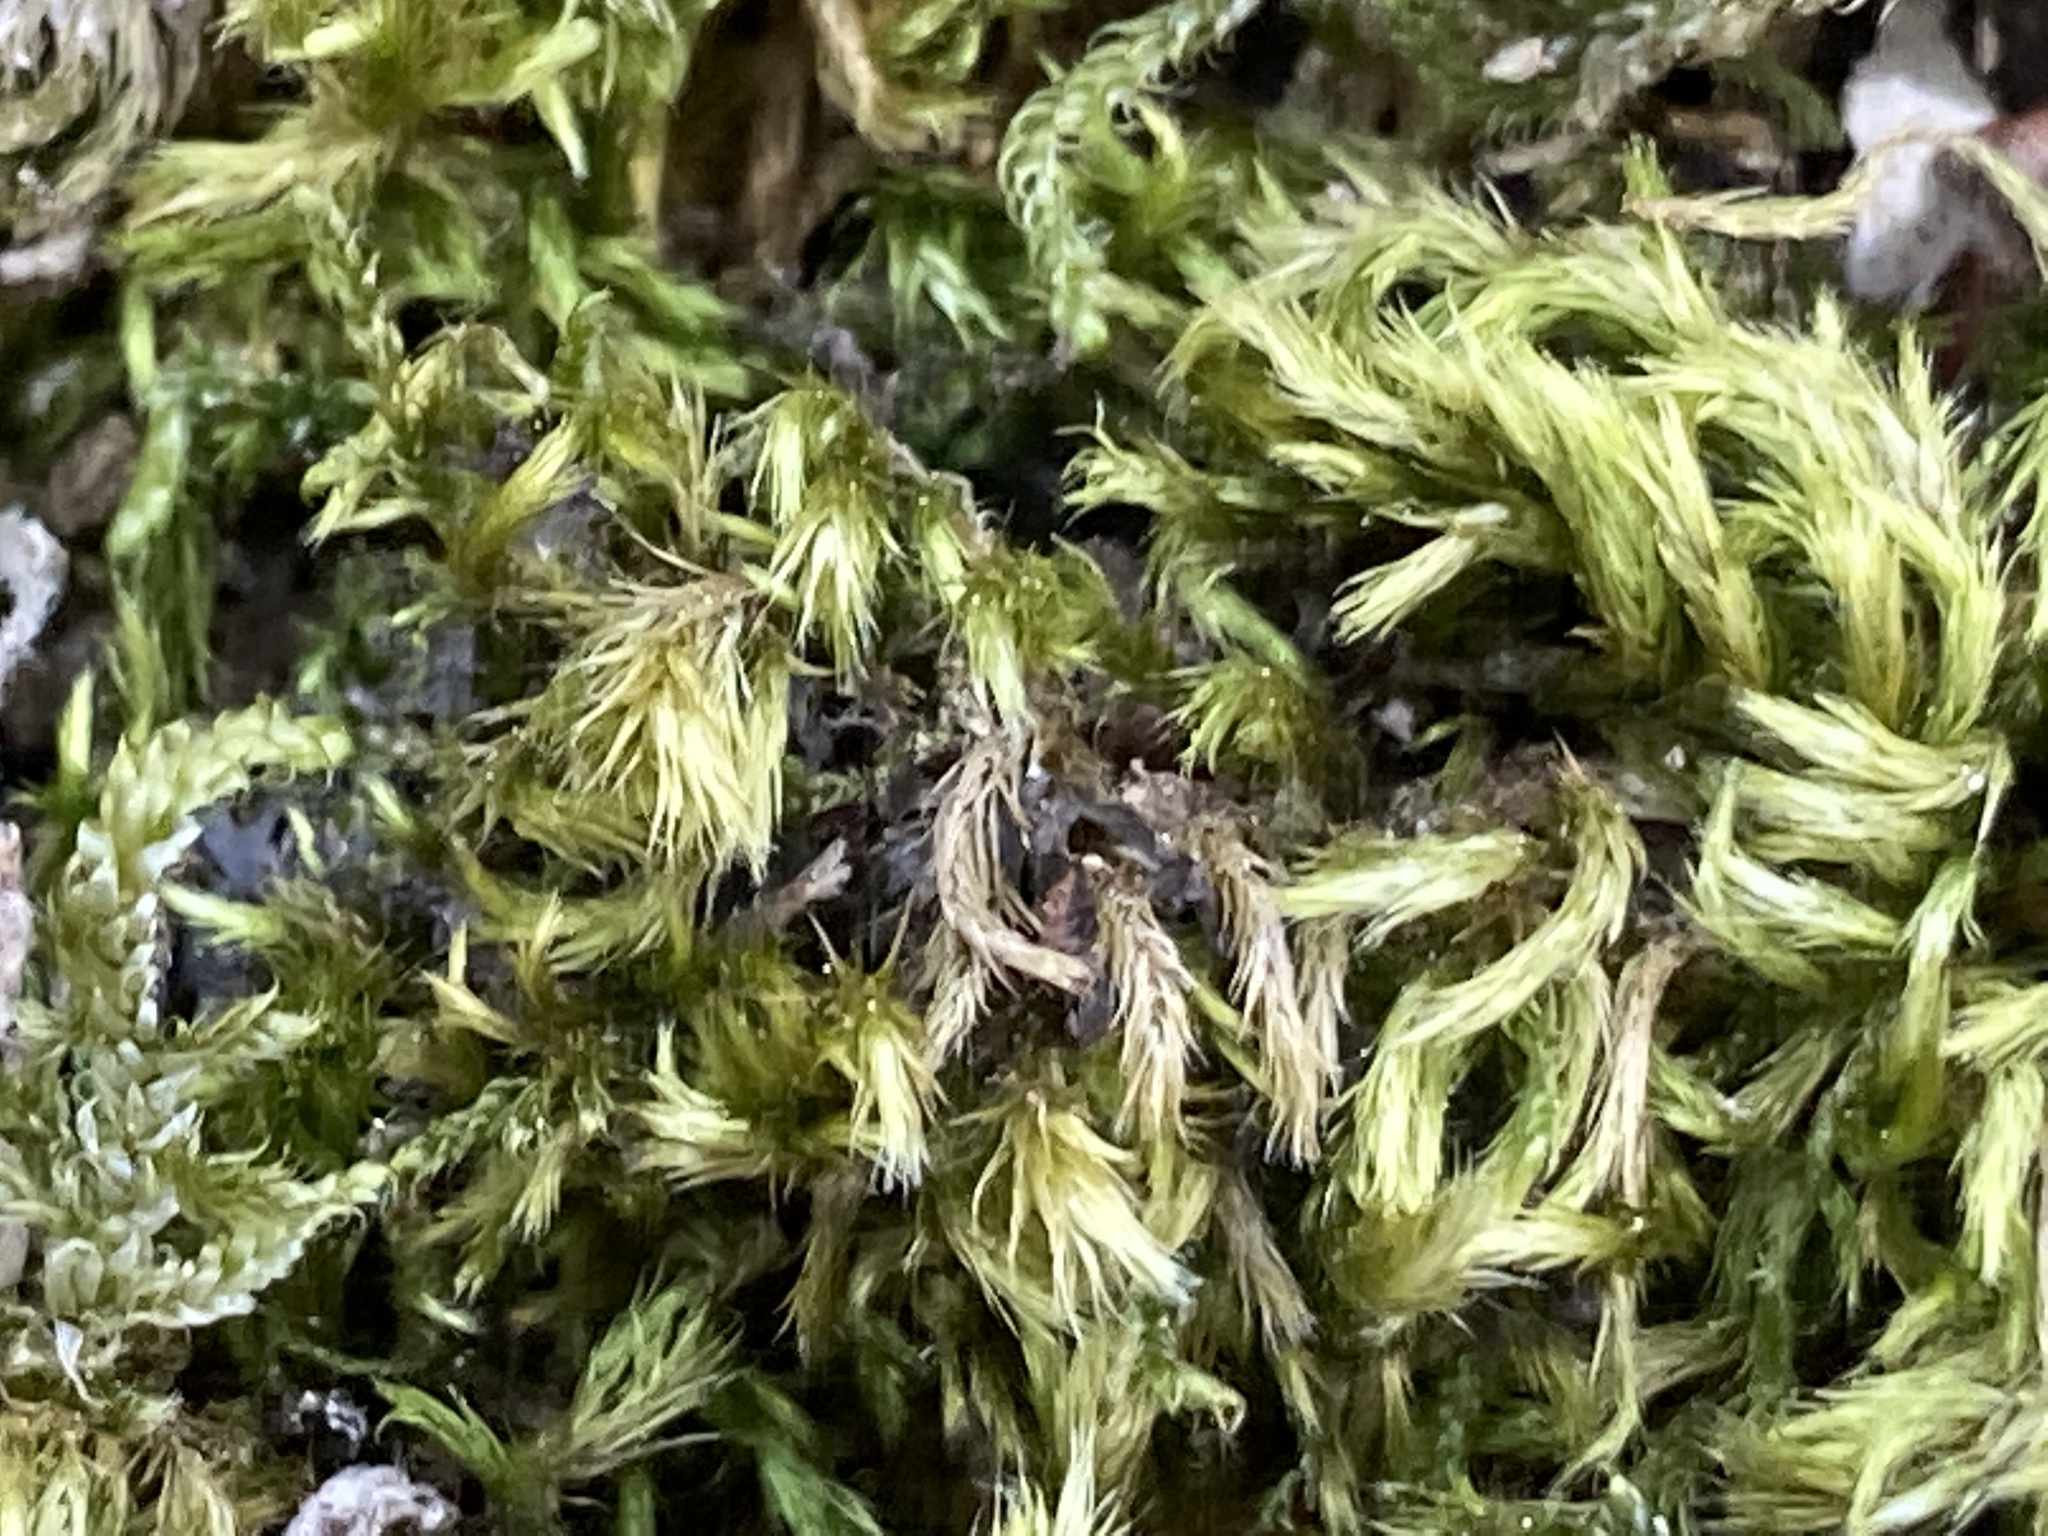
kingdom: Plantae
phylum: Bryophyta
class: Bryopsida
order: Hypnales
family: Brachytheciaceae
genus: Homalothecium
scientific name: Homalothecium sericeum
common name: Silky wall feather-moss
